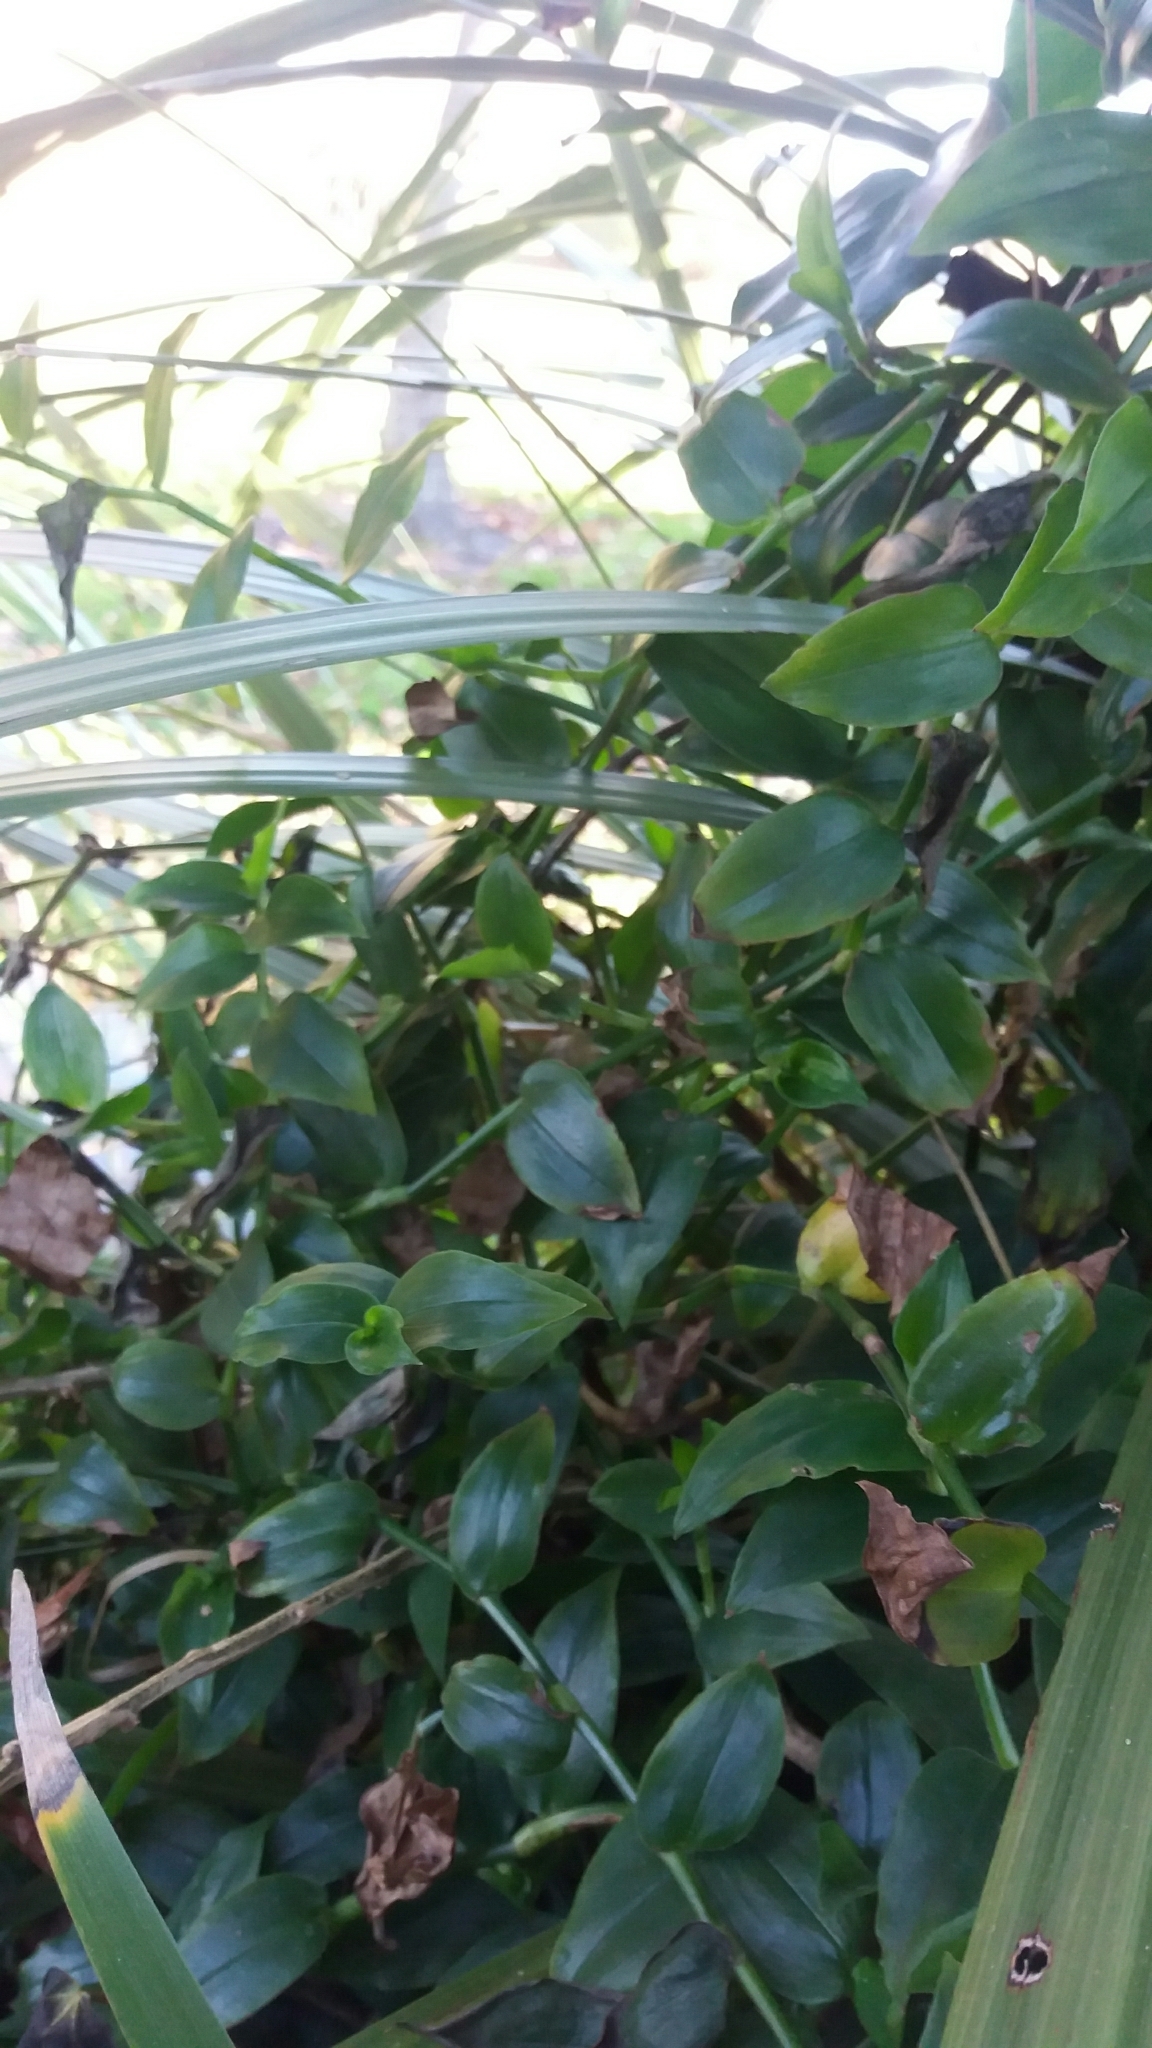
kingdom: Plantae
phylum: Tracheophyta
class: Liliopsida
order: Commelinales
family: Commelinaceae
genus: Tradescantia
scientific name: Tradescantia fluminensis
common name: Wandering-jew
